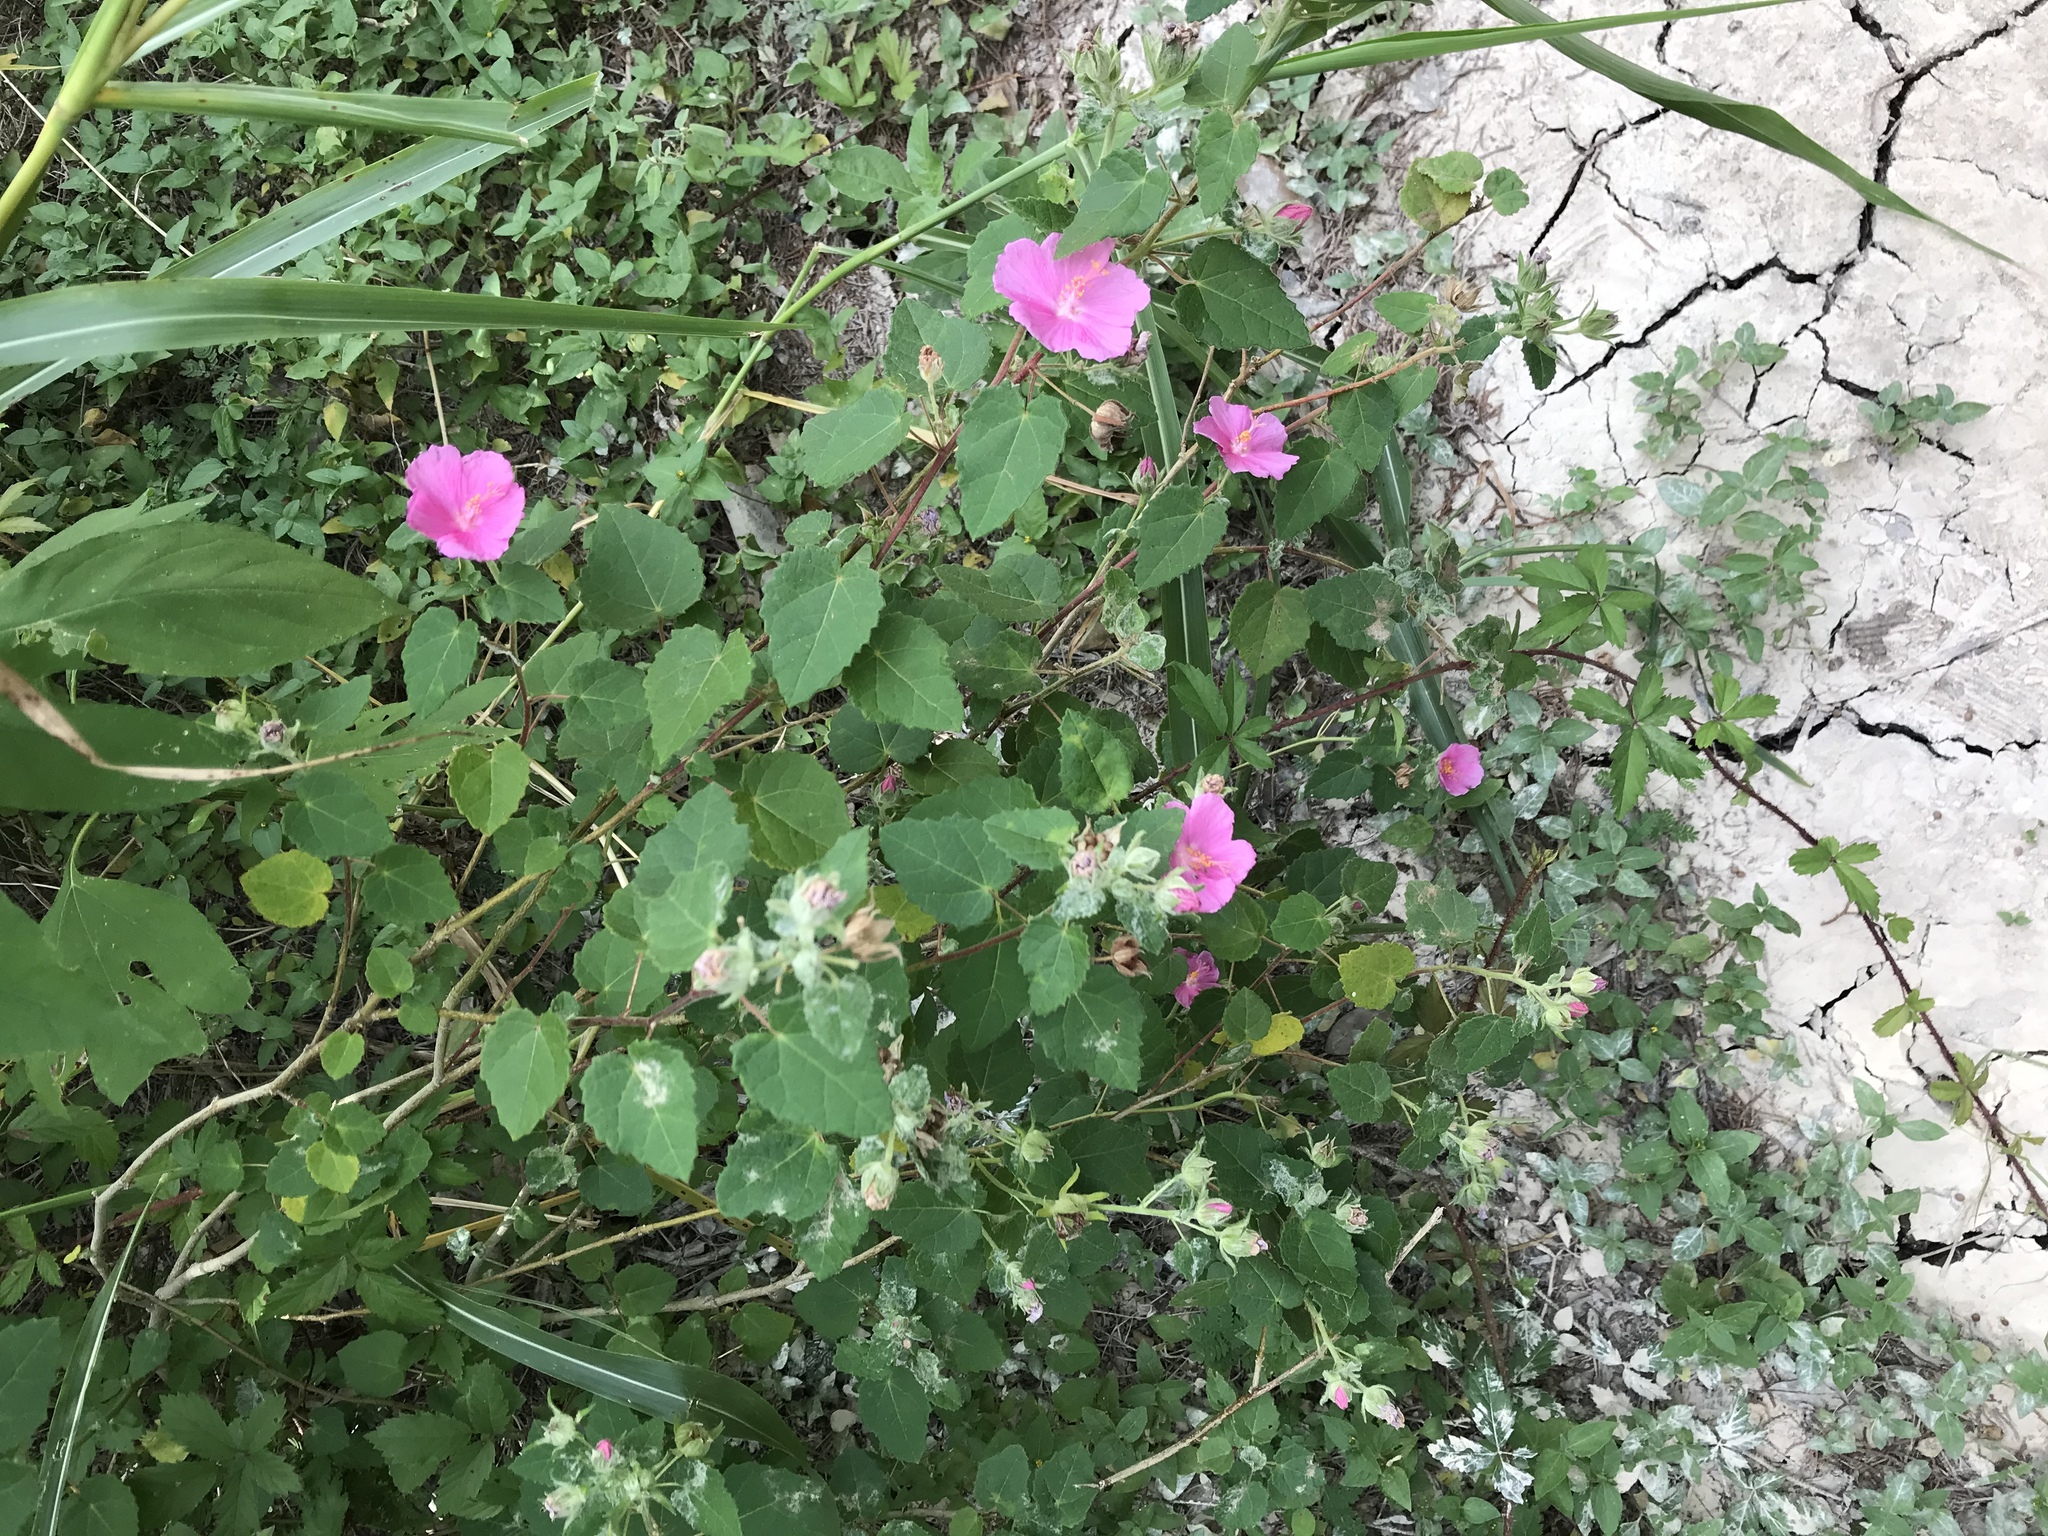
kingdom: Plantae
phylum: Tracheophyta
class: Magnoliopsida
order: Malvales
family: Malvaceae
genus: Pavonia
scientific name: Pavonia lasiopetala
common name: Texas swamp-mallow
